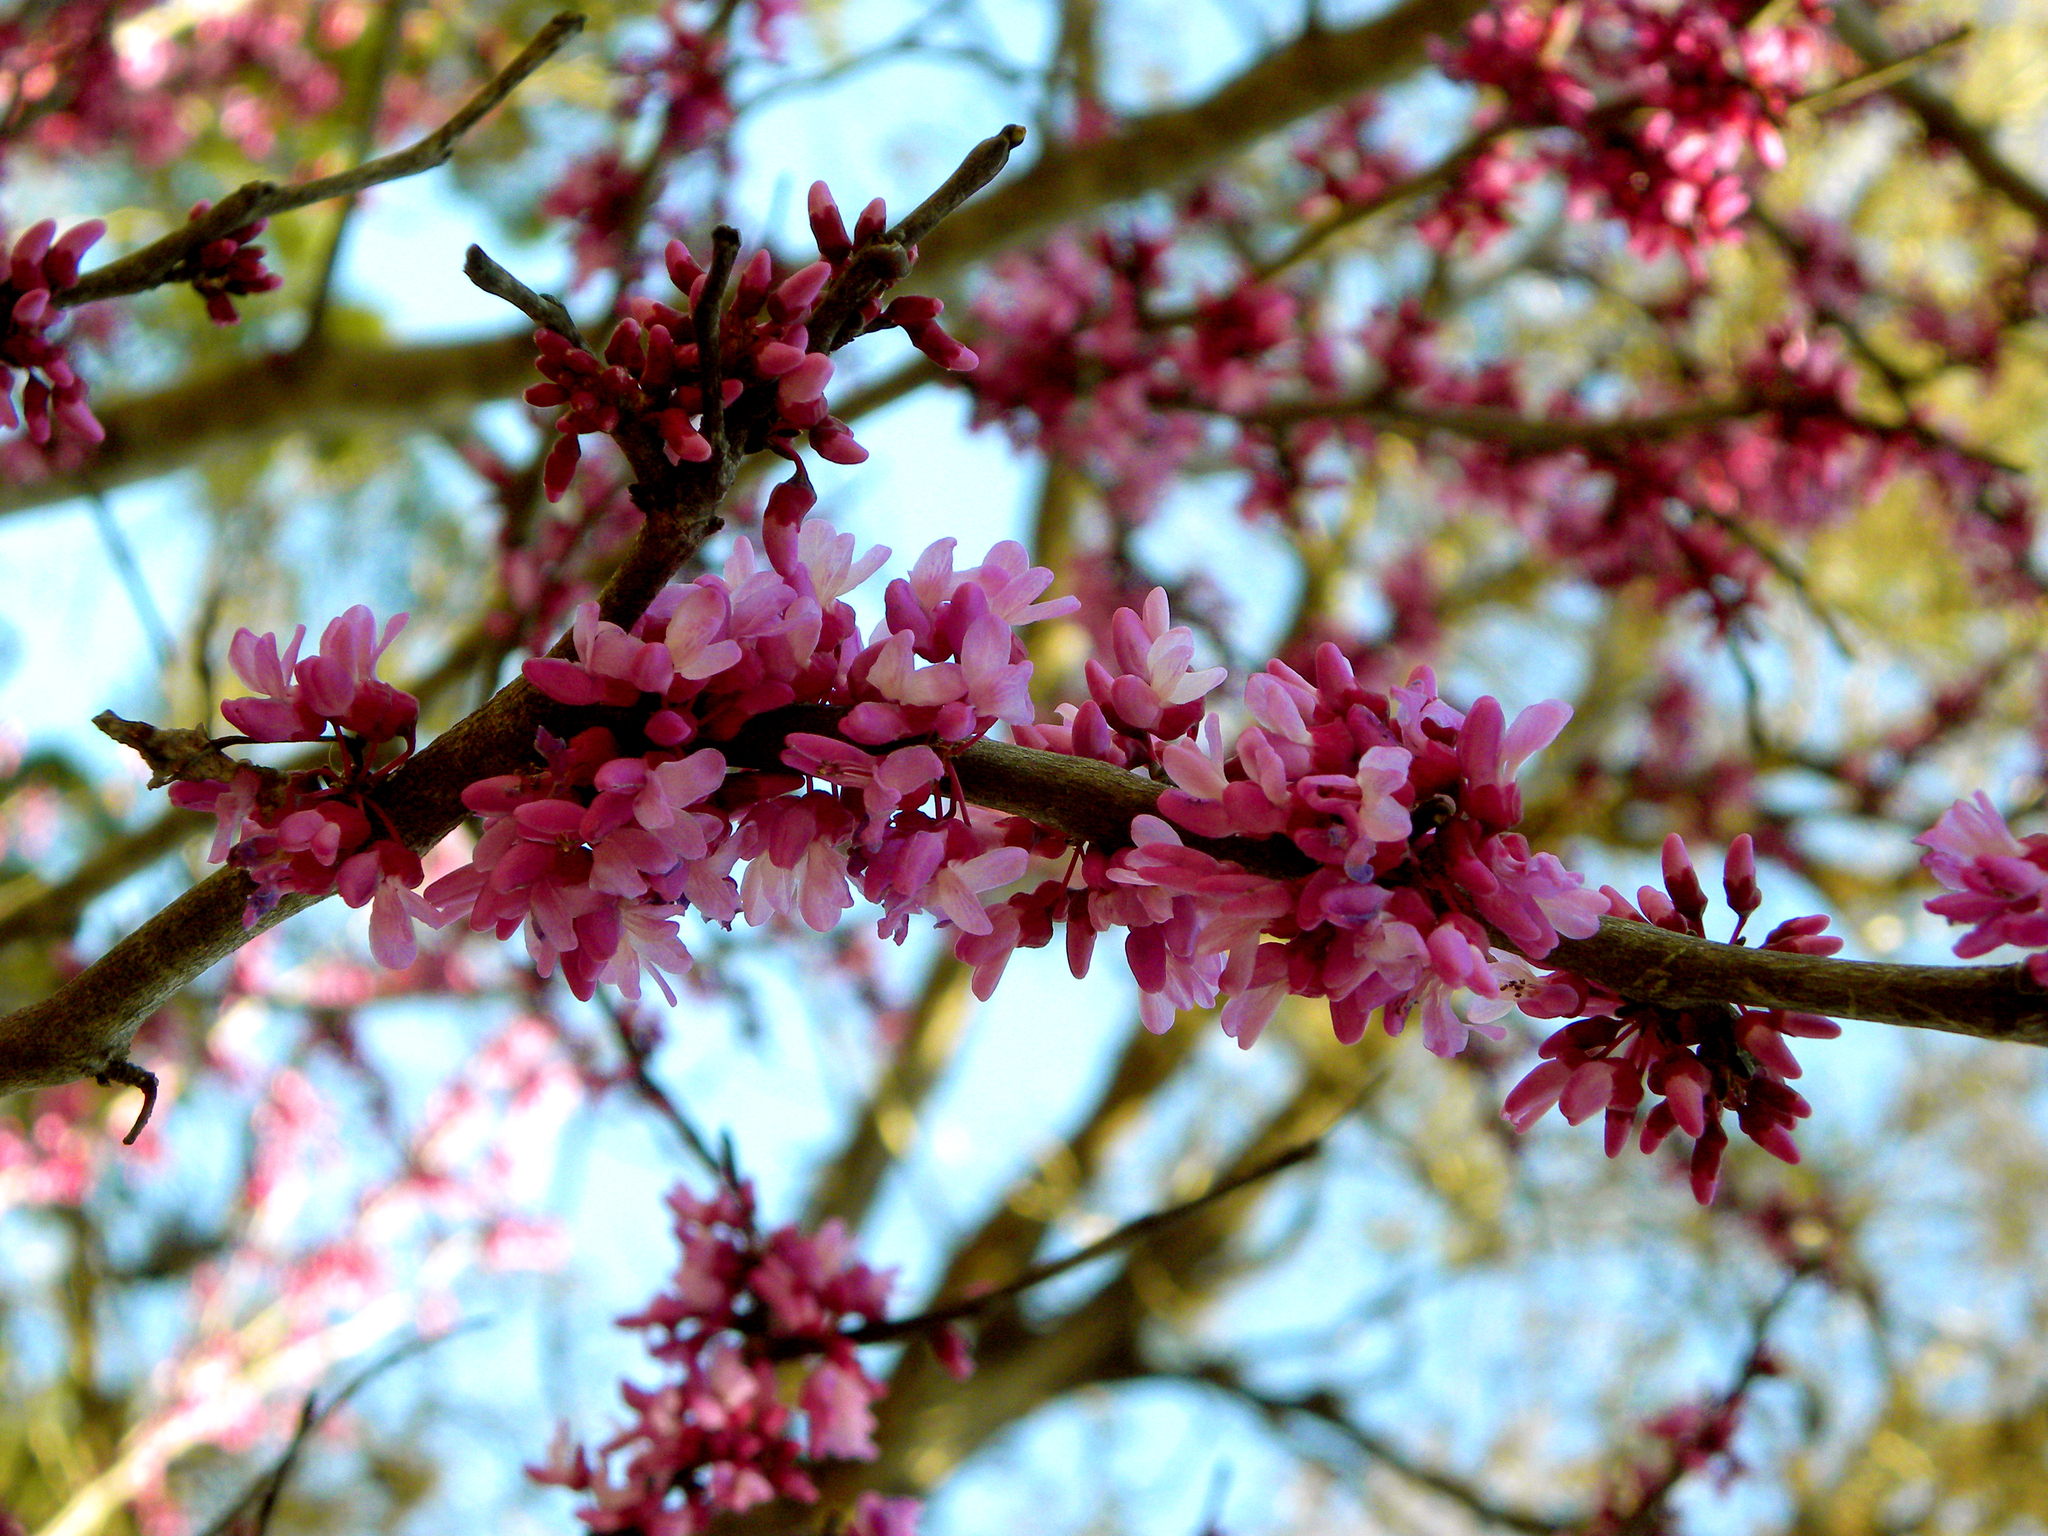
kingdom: Plantae
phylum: Tracheophyta
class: Magnoliopsida
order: Fabales
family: Fabaceae
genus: Cercis
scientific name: Cercis canadensis
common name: Eastern redbud
